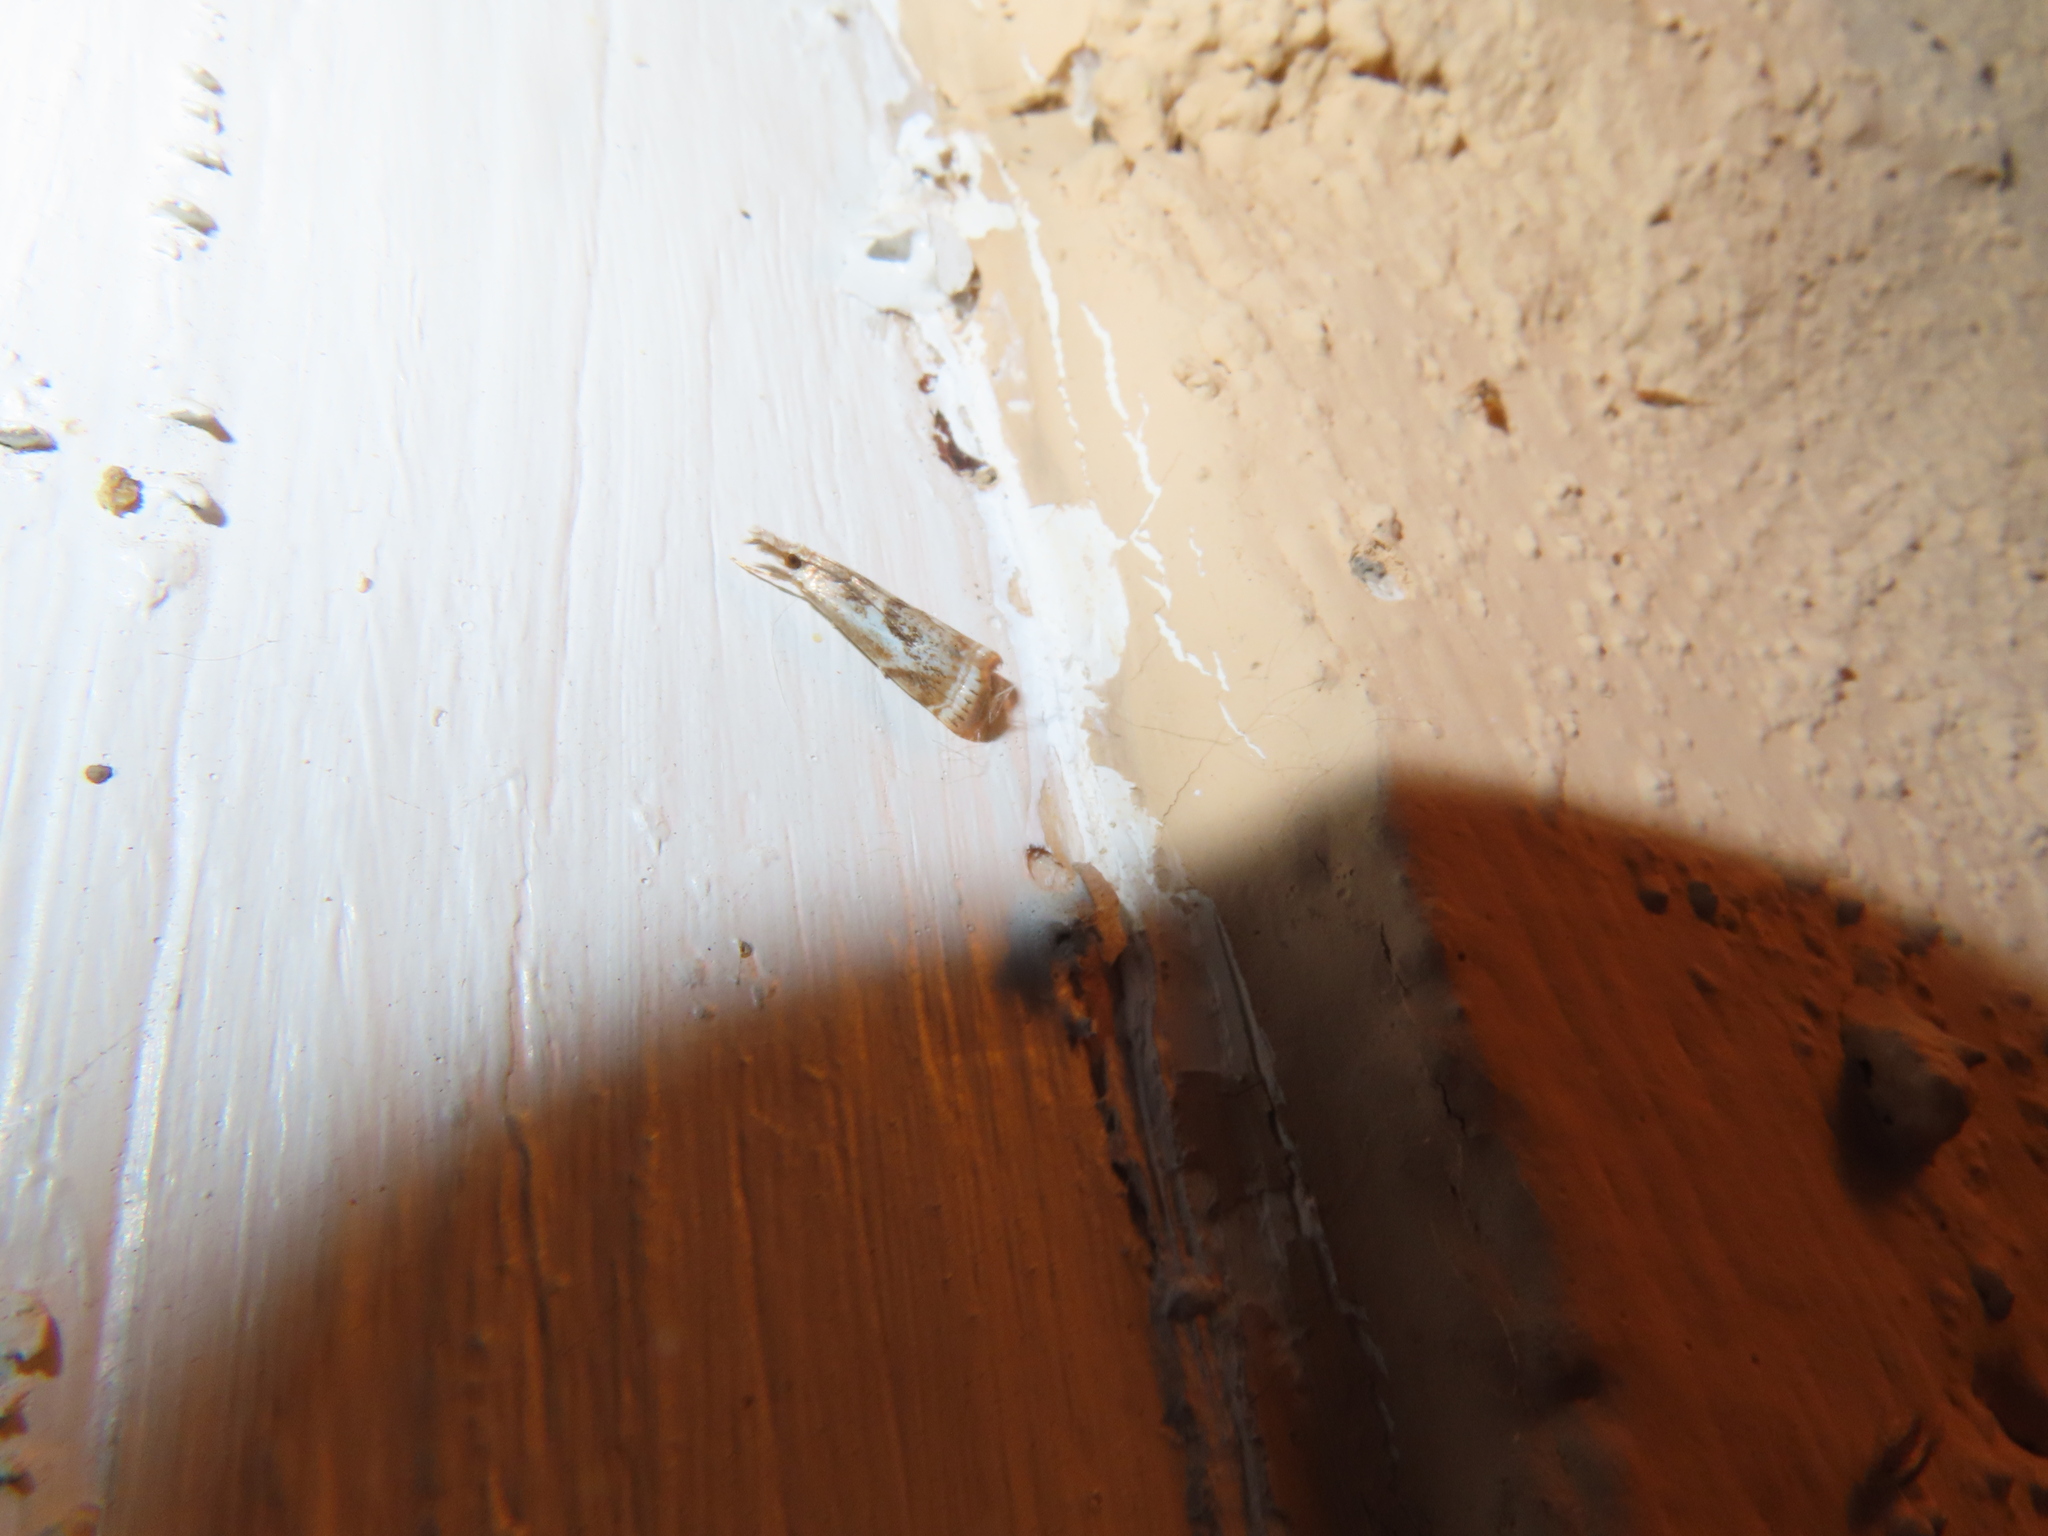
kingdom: Animalia
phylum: Arthropoda
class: Insecta
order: Lepidoptera
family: Crambidae
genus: Microcrambus
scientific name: Microcrambus elegans
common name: Elegant grass-veneer
